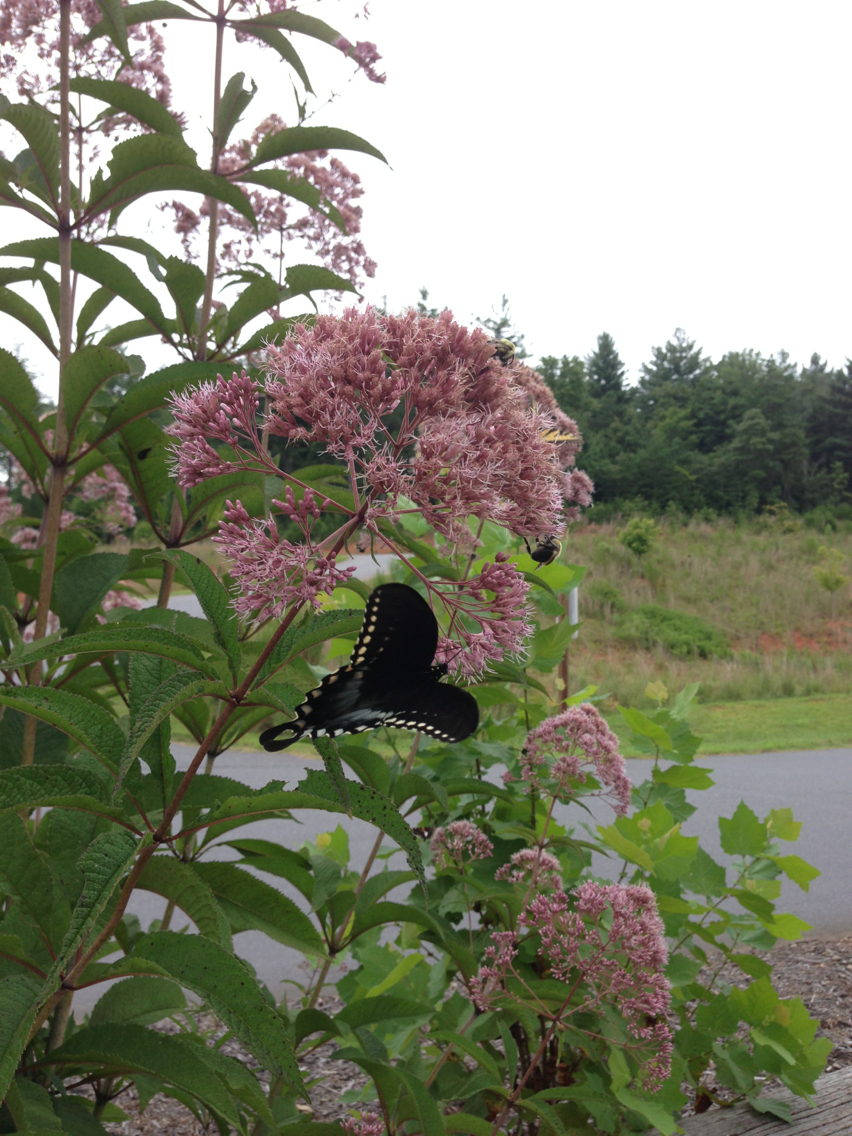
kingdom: Animalia
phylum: Arthropoda
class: Insecta
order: Lepidoptera
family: Papilionidae
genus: Papilio
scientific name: Papilio troilus
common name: Spicebush swallowtail
